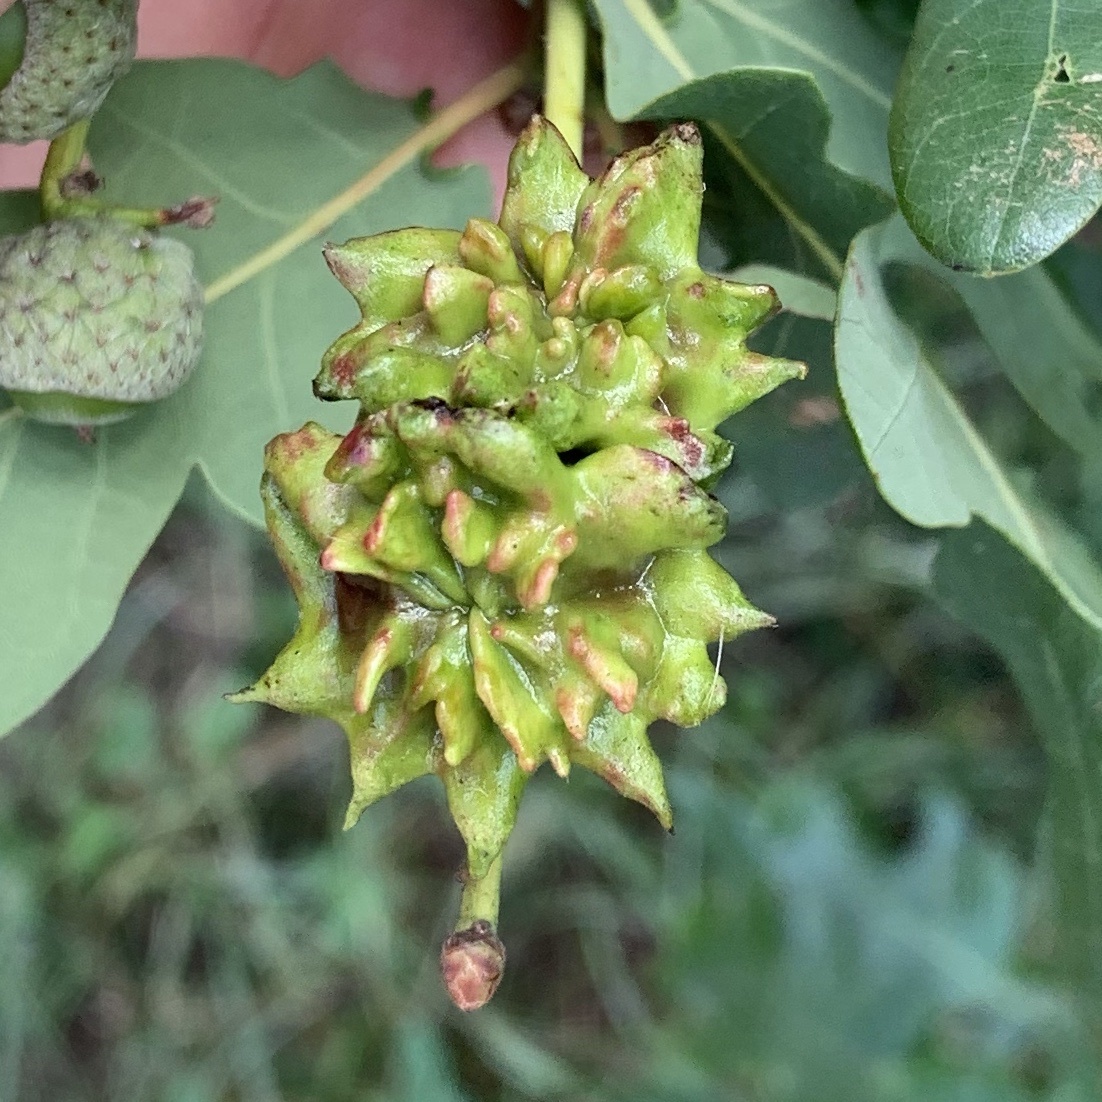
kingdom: Animalia
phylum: Arthropoda
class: Insecta
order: Hymenoptera
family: Cynipidae
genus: Andricus
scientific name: Andricus quercuscalicis
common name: Knopper gall
